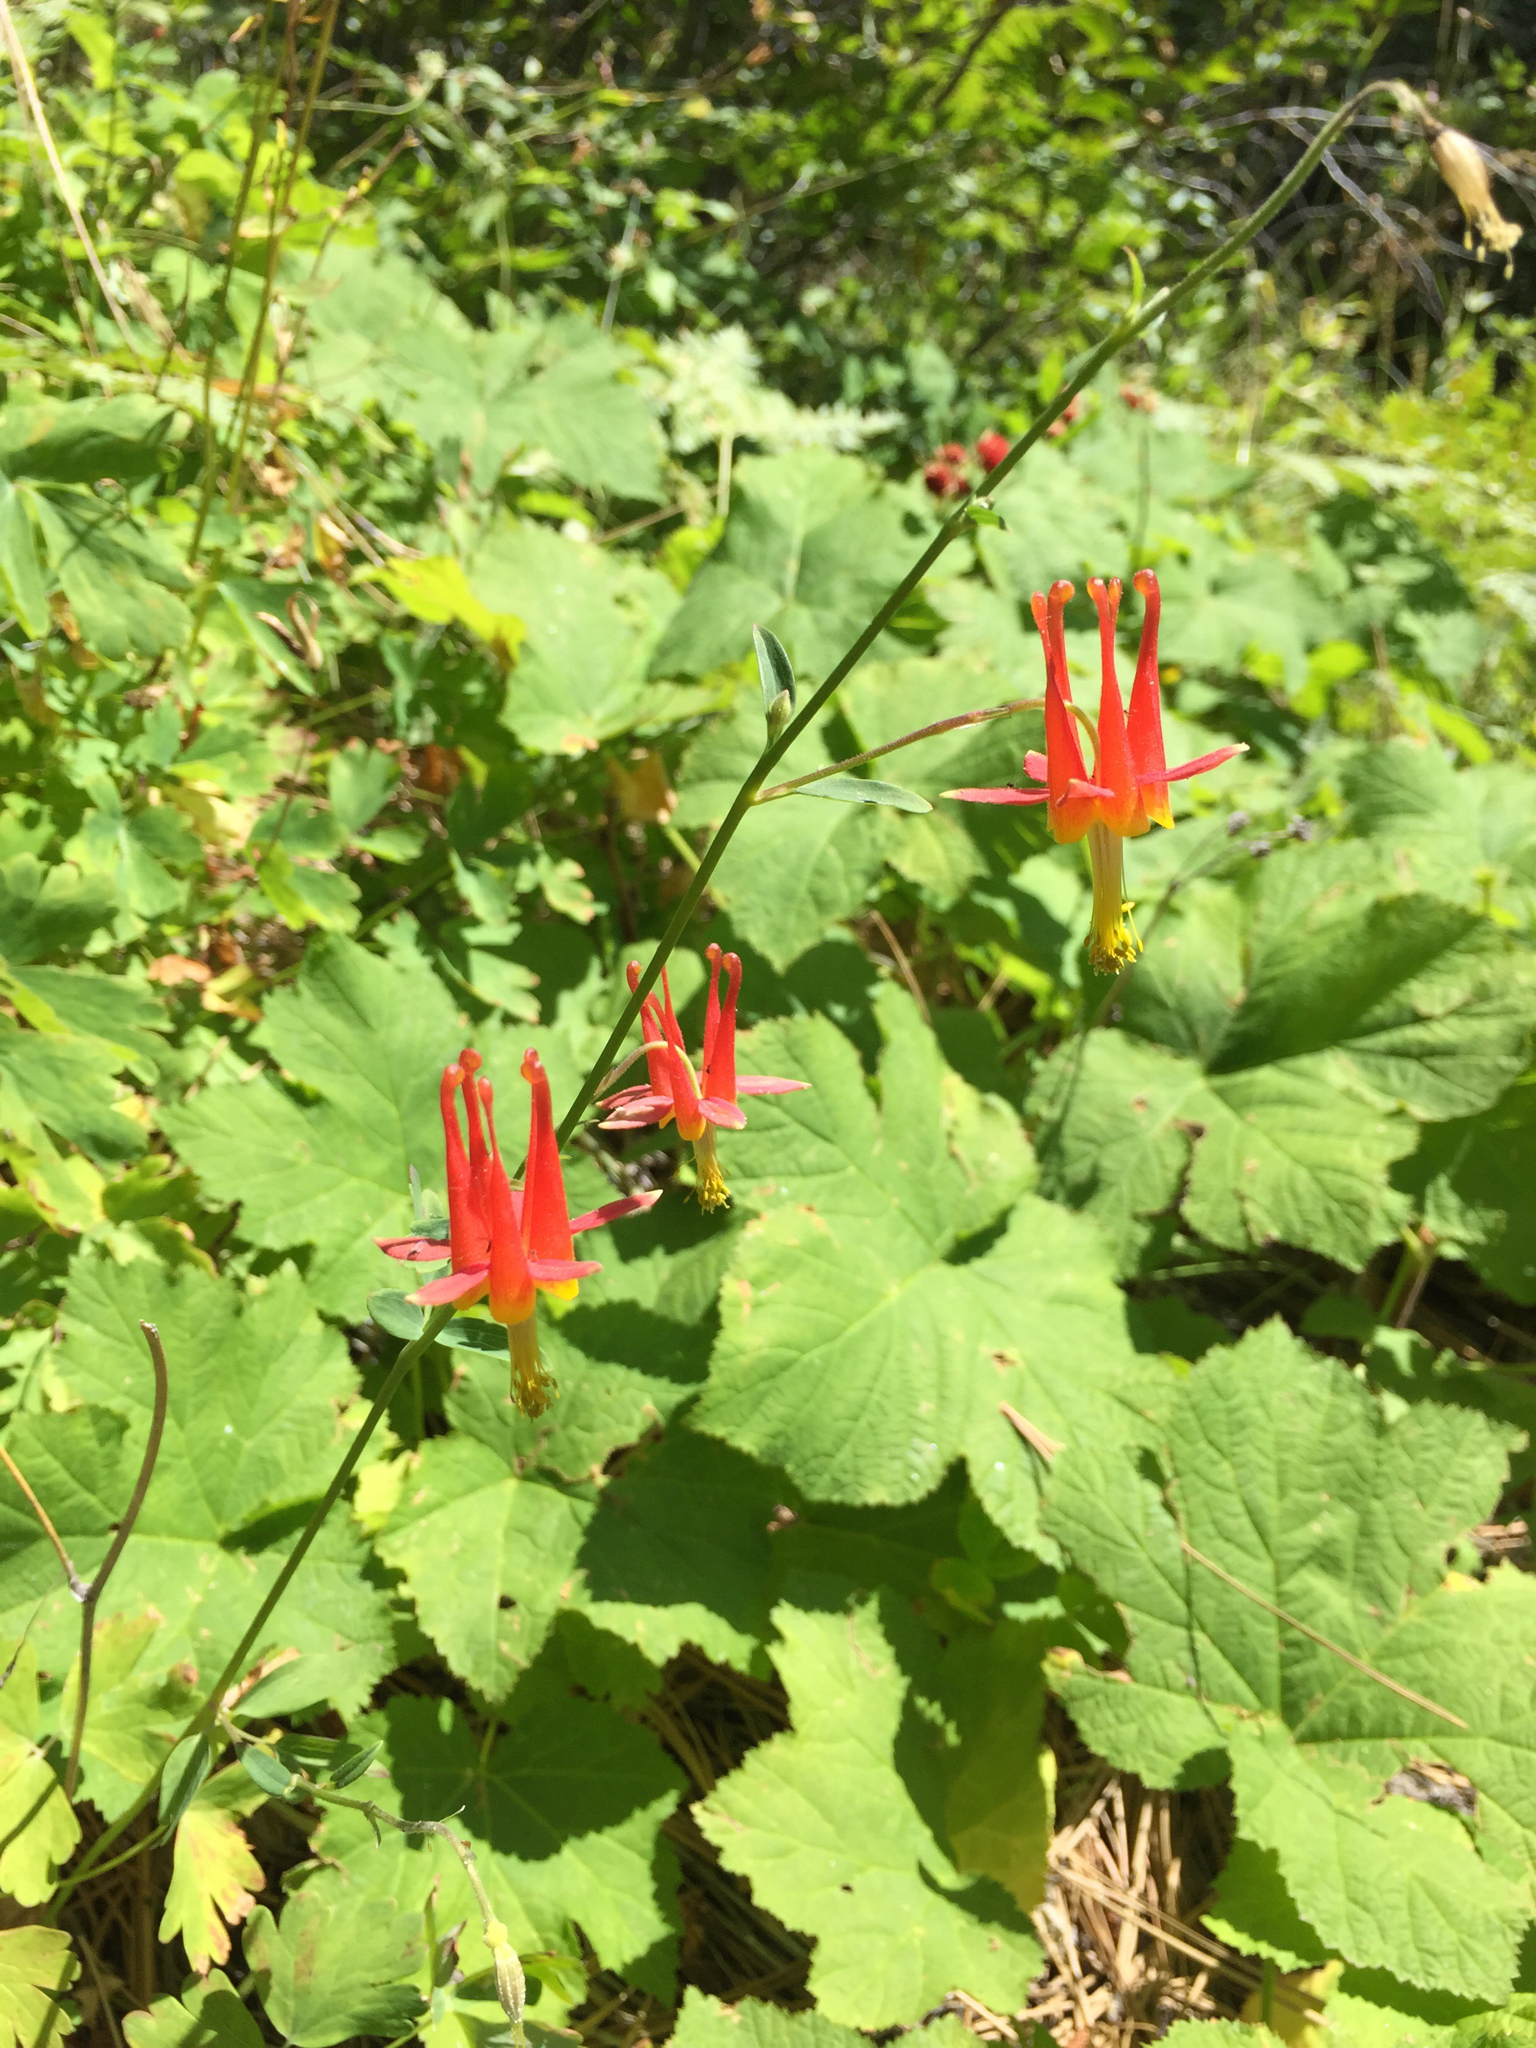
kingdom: Plantae
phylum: Tracheophyta
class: Magnoliopsida
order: Ranunculales
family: Ranunculaceae
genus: Aquilegia
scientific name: Aquilegia formosa
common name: Sitka columbine
